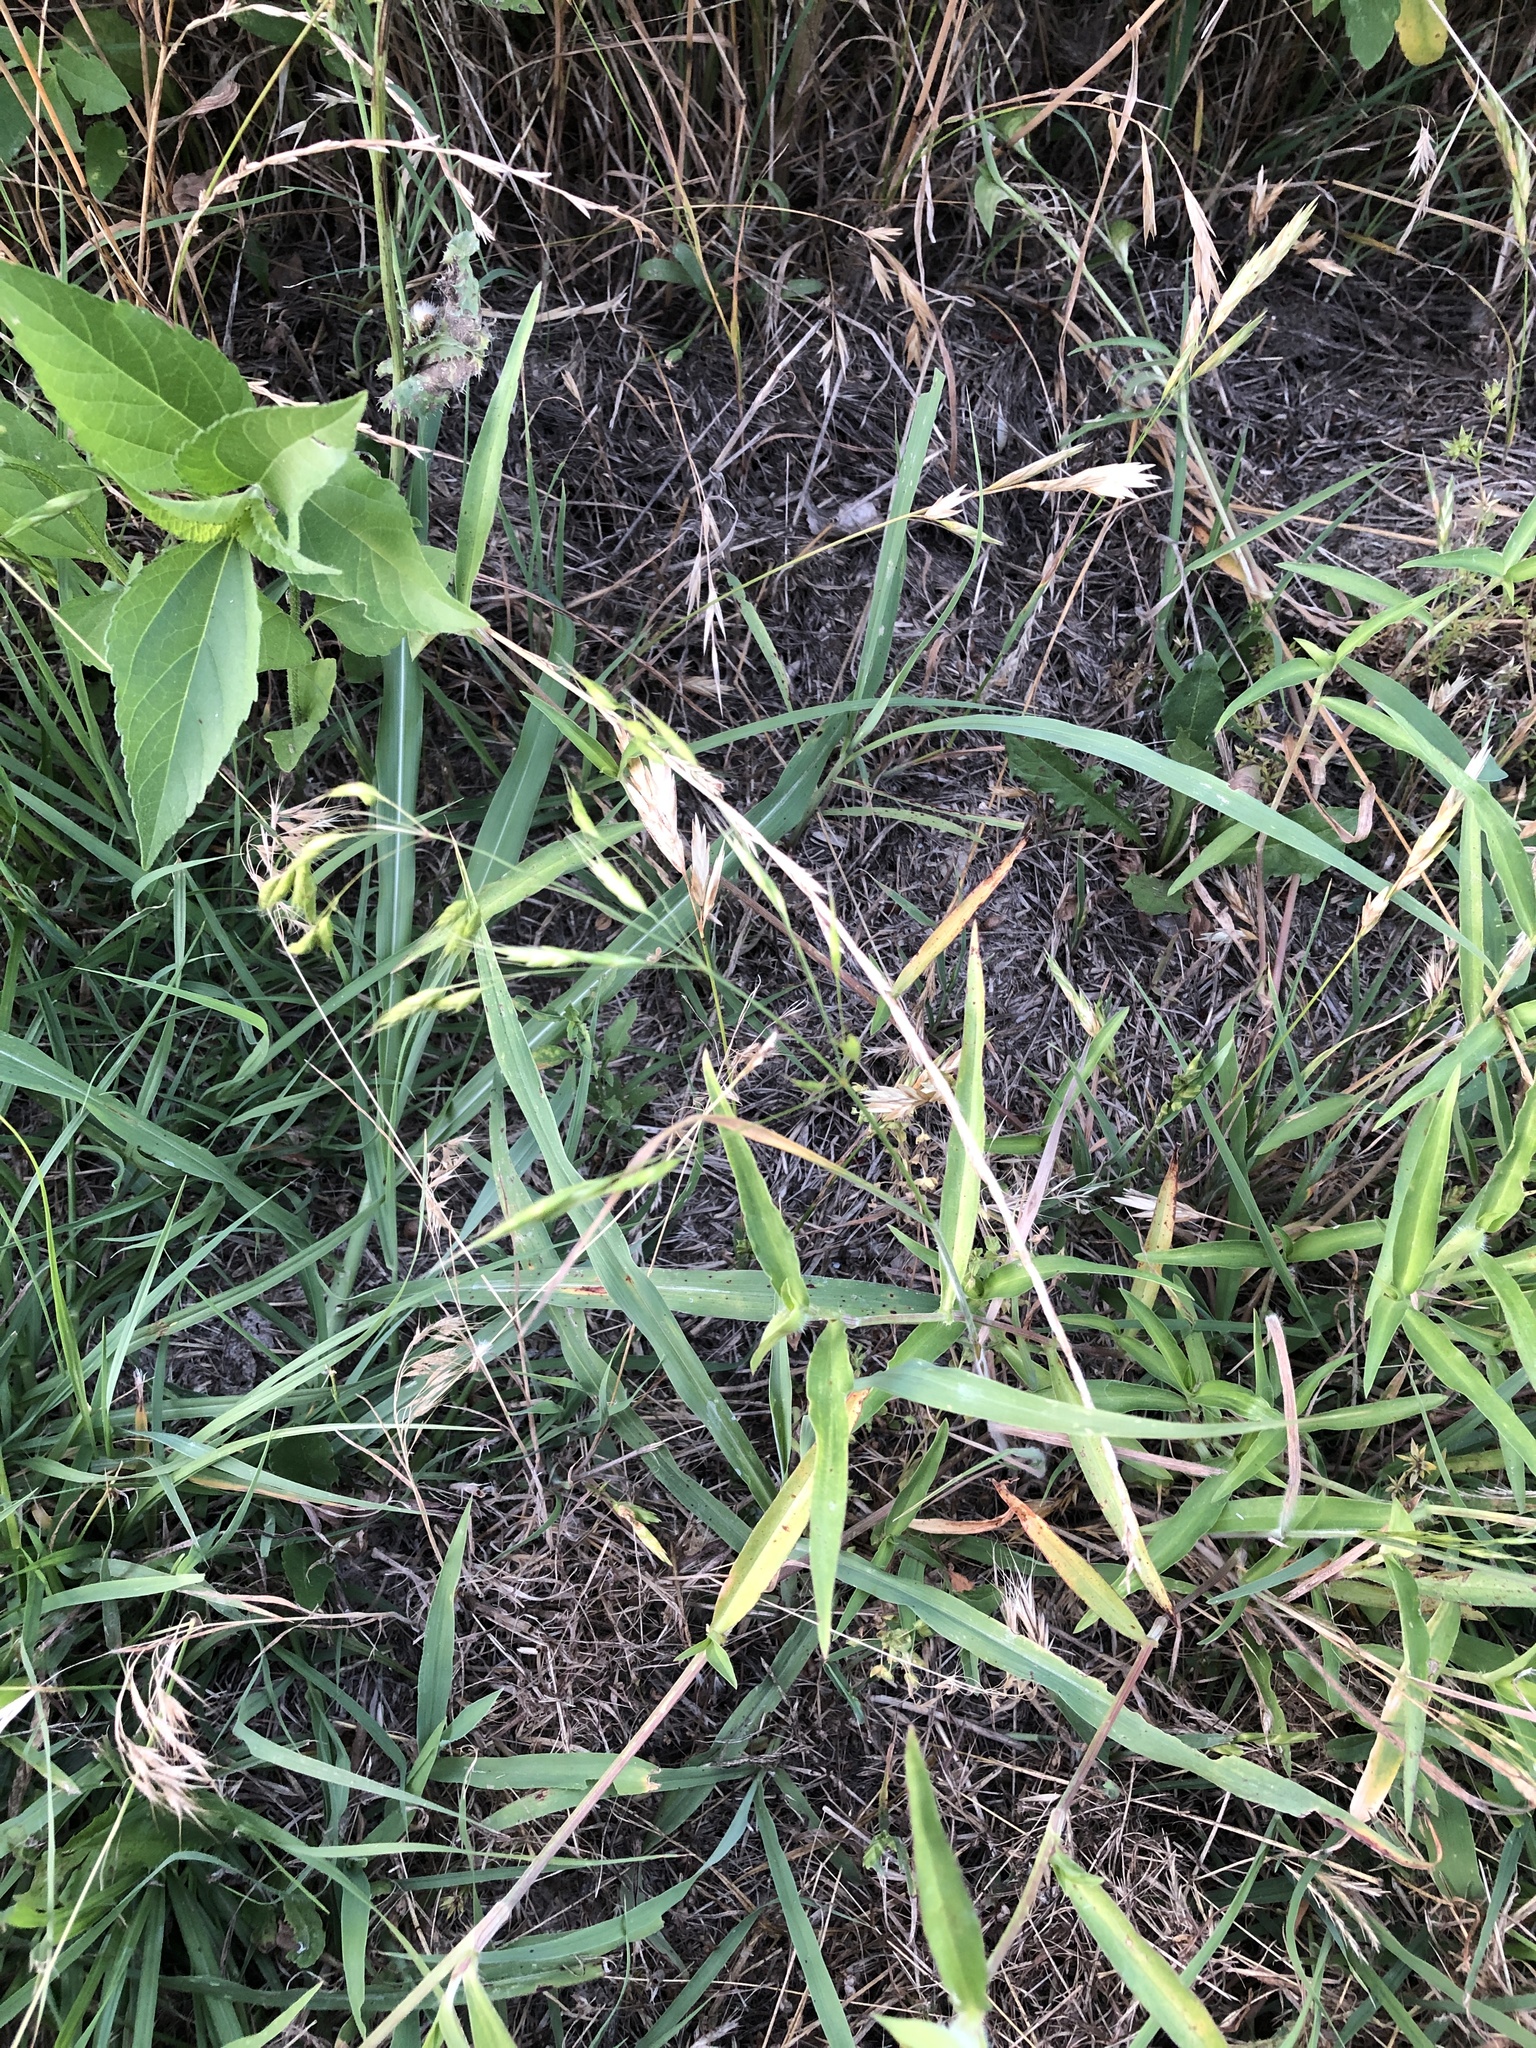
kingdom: Plantae
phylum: Tracheophyta
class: Liliopsida
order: Poales
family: Poaceae
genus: Bromus
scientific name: Bromus japonicus
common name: Japanese brome
